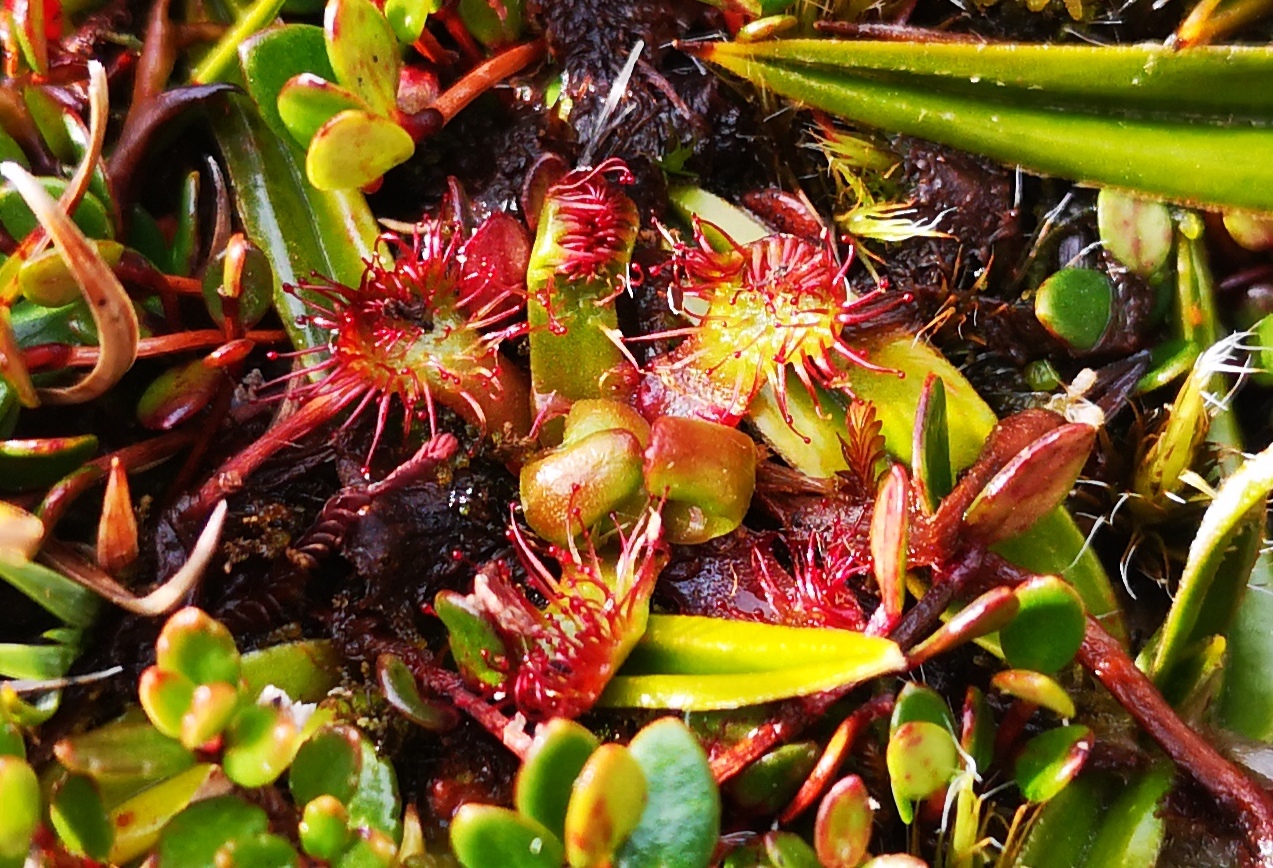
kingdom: Plantae
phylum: Tracheophyta
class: Magnoliopsida
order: Caryophyllales
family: Droseraceae
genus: Drosera
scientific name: Drosera uniflora
